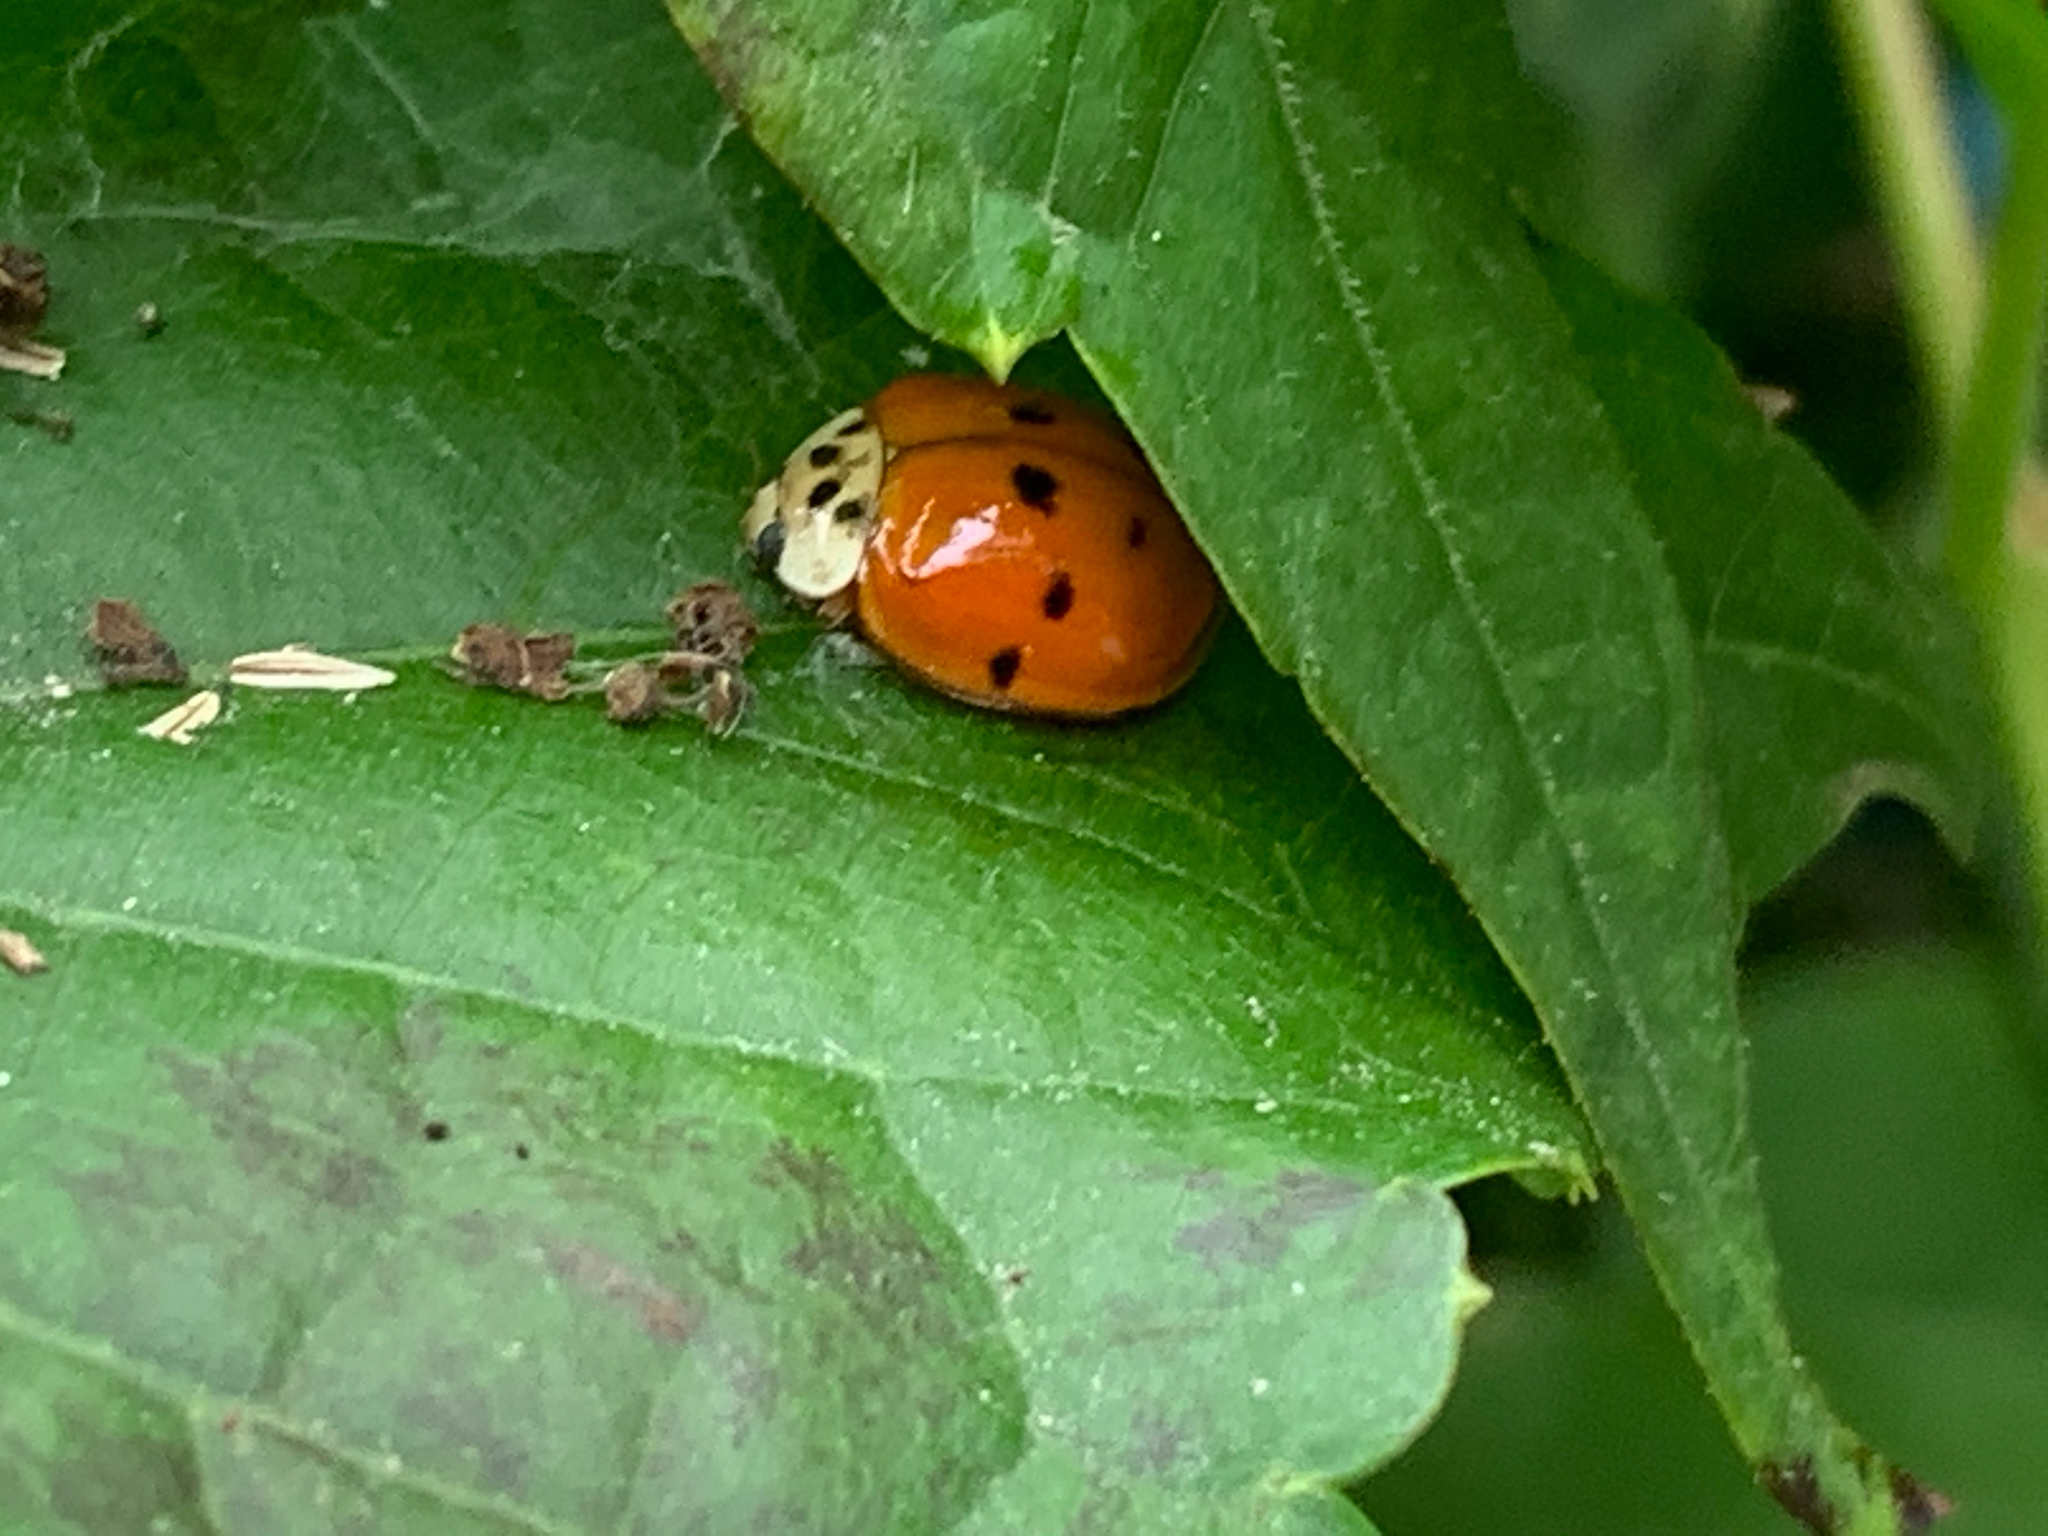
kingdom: Animalia
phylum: Arthropoda
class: Insecta
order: Coleoptera
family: Coccinellidae
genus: Harmonia
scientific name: Harmonia axyridis
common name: Harlequin ladybird
